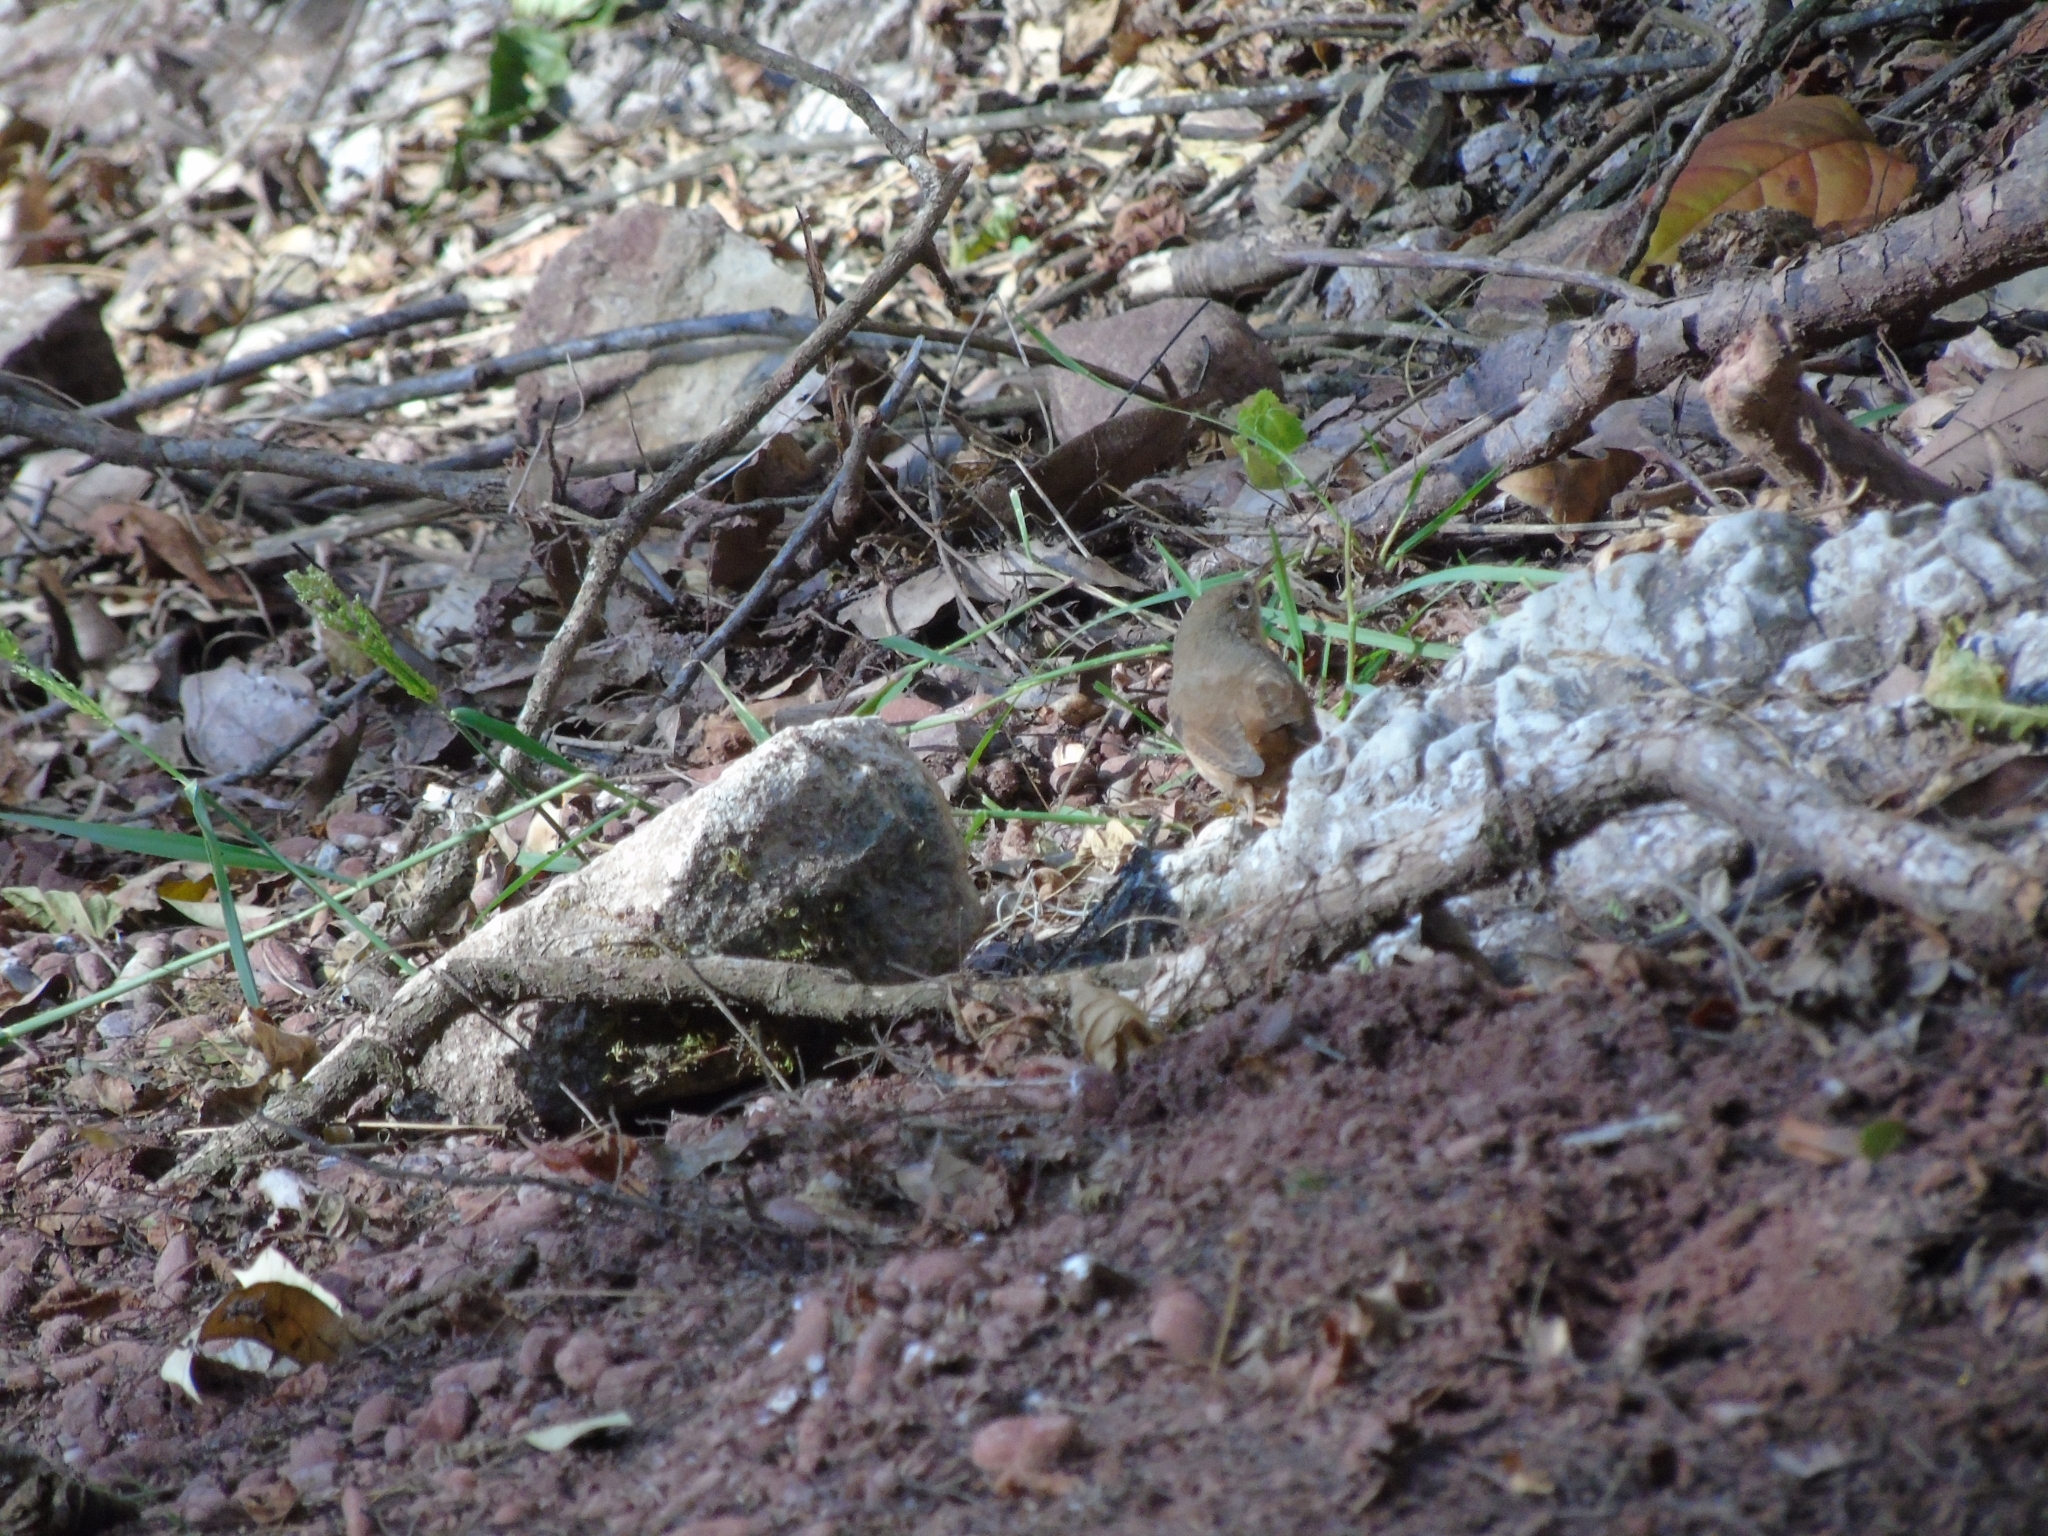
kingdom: Animalia
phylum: Chordata
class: Aves
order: Passeriformes
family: Troglodytidae
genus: Troglodytes
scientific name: Troglodytes aedon
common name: House wren
